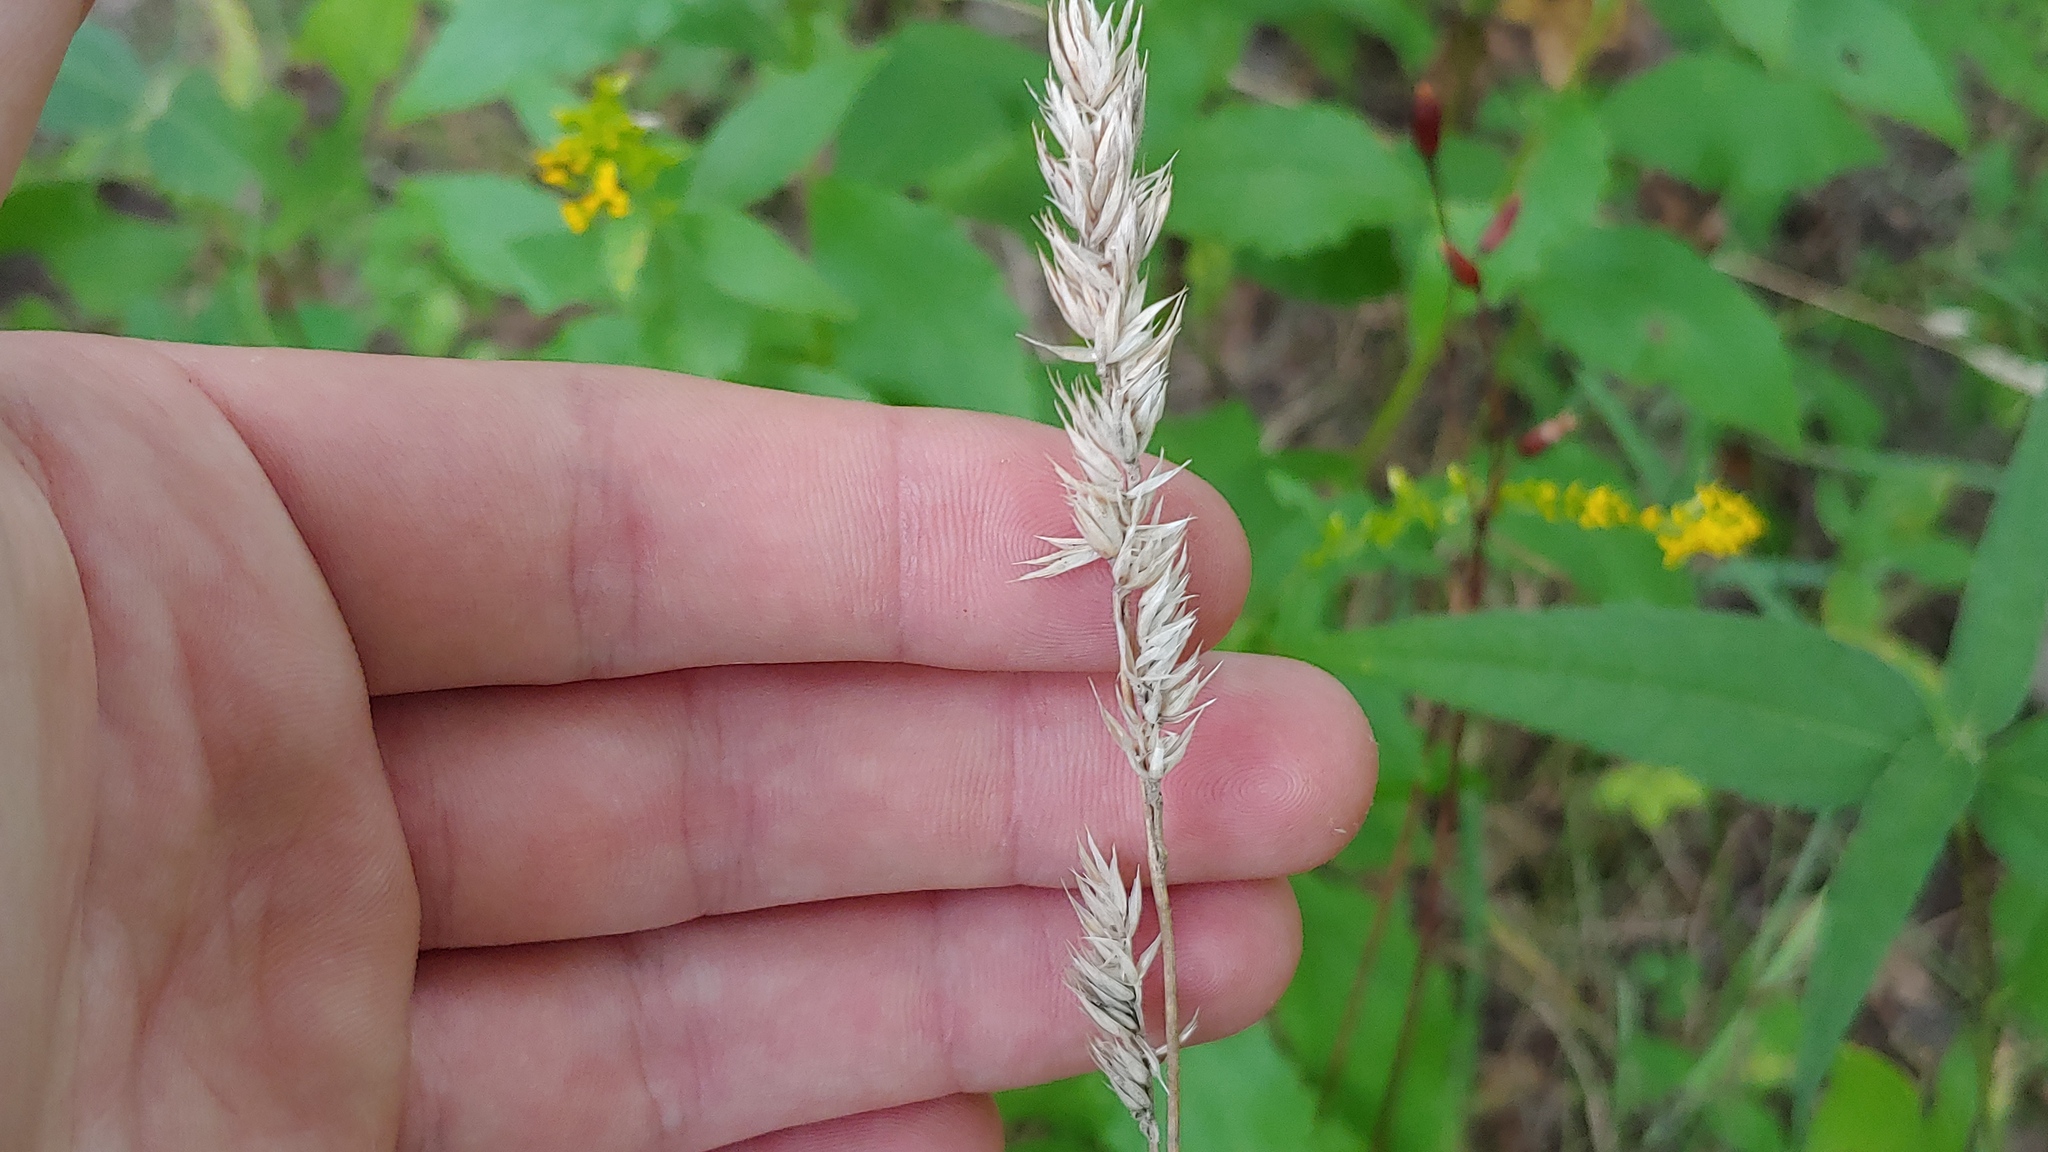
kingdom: Plantae
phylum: Tracheophyta
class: Liliopsida
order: Poales
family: Poaceae
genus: Dactylis
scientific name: Dactylis glomerata
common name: Orchardgrass
